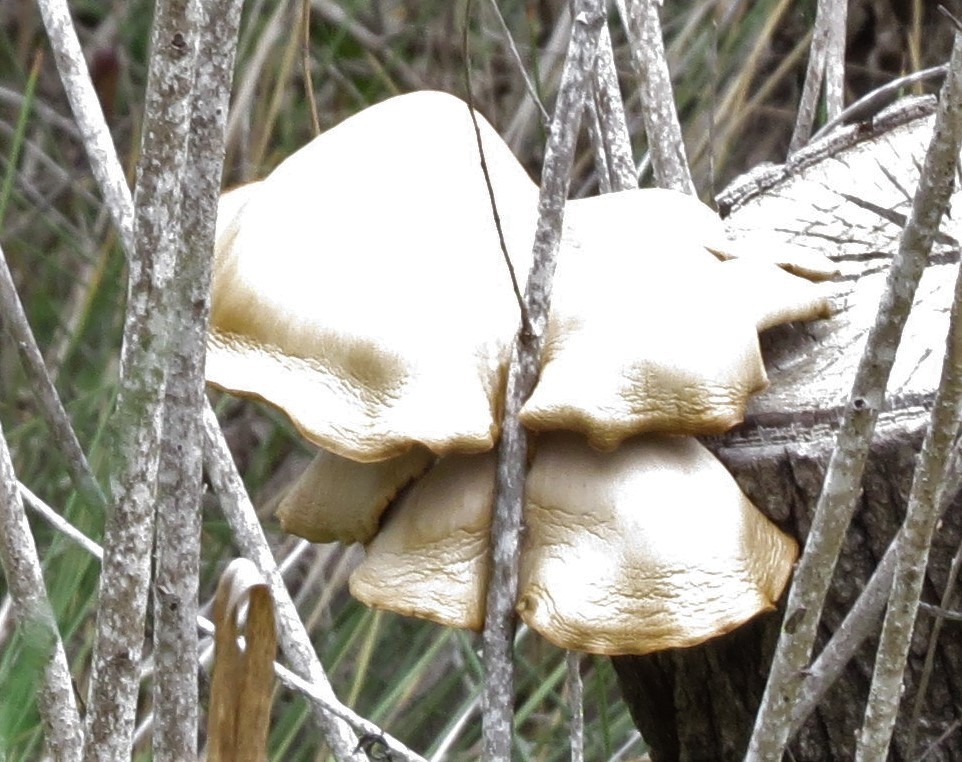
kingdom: Fungi
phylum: Basidiomycota
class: Agaricomycetes
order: Agaricales
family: Pleurotaceae
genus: Pleurotus
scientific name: Pleurotus ostreatus
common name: Oyster mushroom
